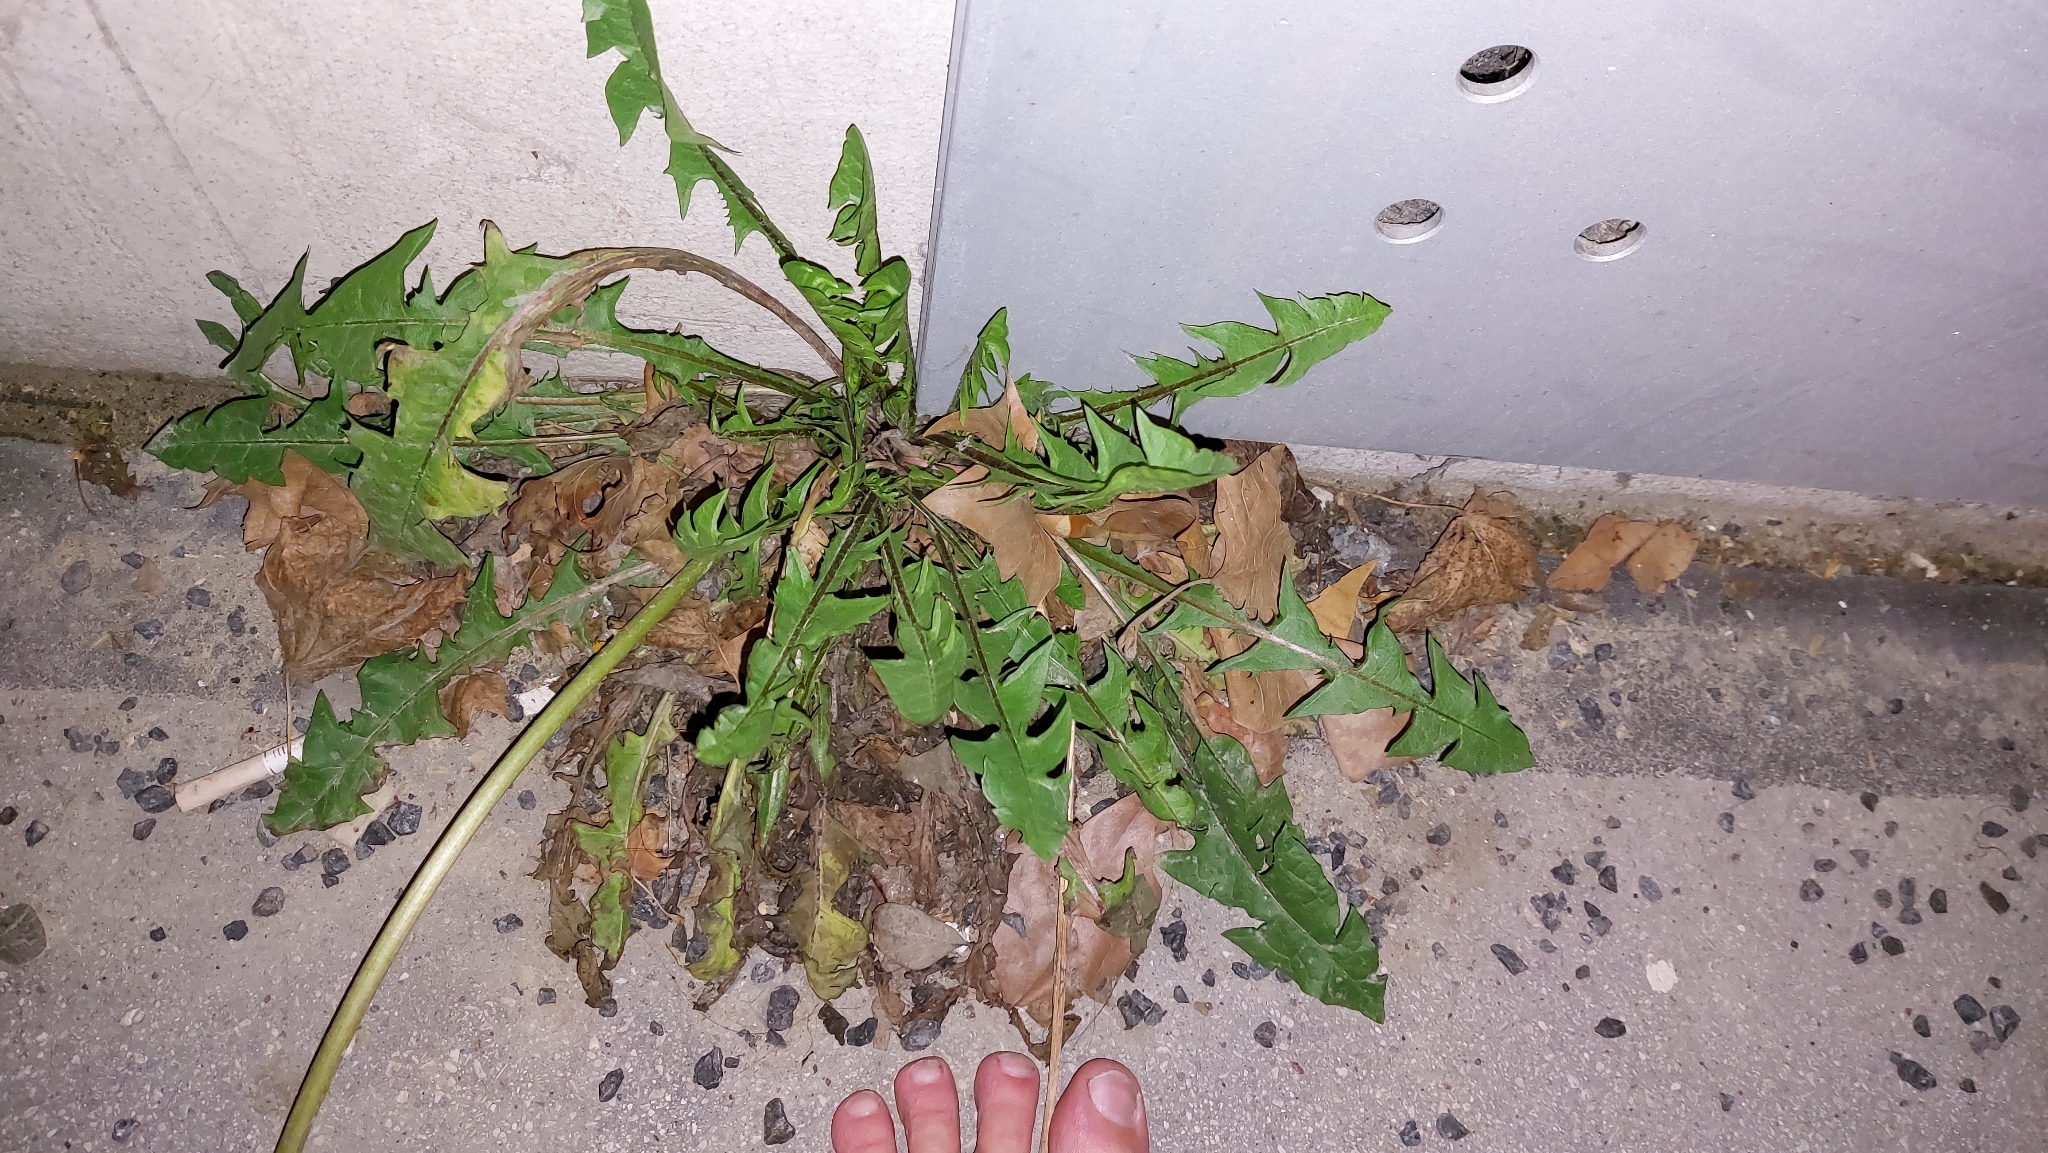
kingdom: Plantae
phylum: Tracheophyta
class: Magnoliopsida
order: Asterales
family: Asteraceae
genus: Taraxacum
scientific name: Taraxacum officinale
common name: Common dandelion
